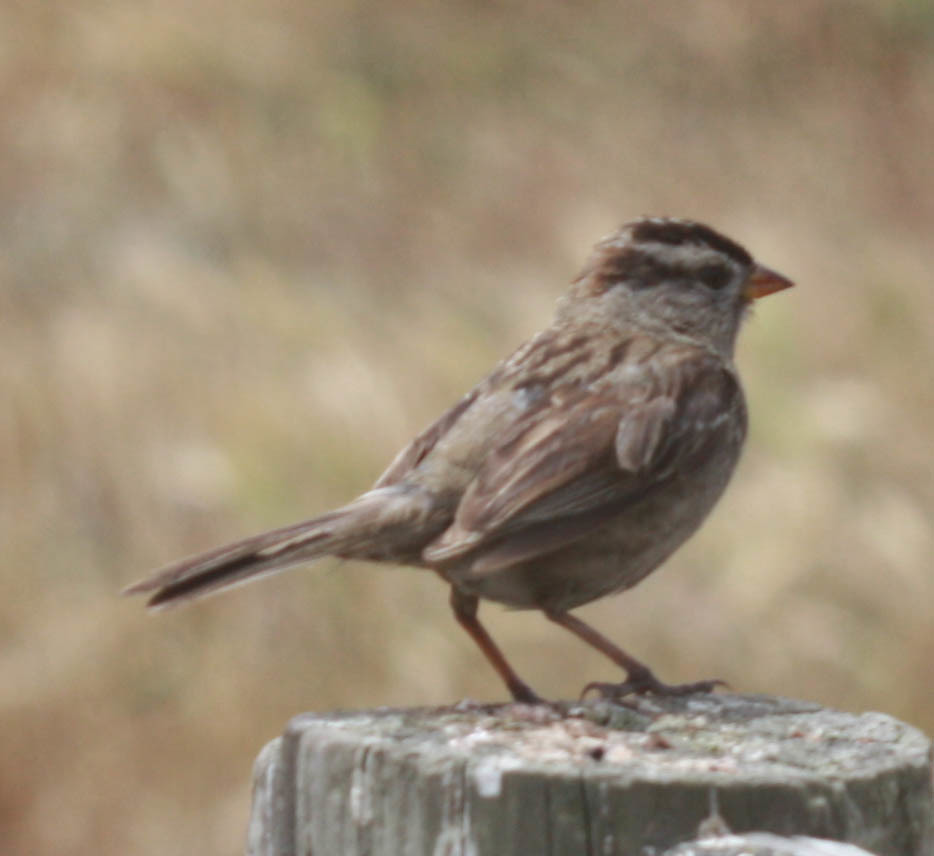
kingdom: Animalia
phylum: Chordata
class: Aves
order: Passeriformes
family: Passerellidae
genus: Zonotrichia
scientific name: Zonotrichia leucophrys
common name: White-crowned sparrow
